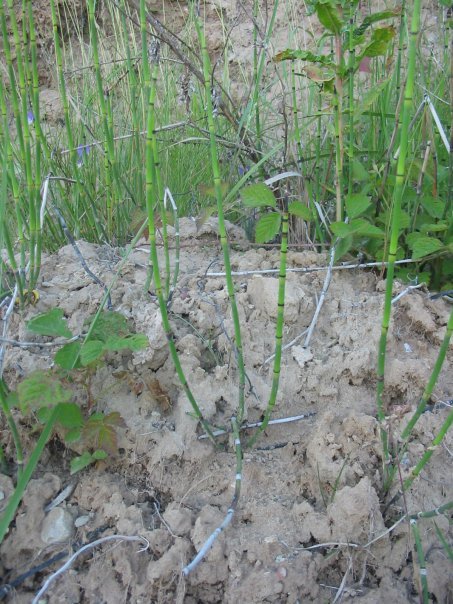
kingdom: Plantae
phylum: Tracheophyta
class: Polypodiopsida
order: Equisetales
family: Equisetaceae
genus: Equisetum
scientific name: Equisetum hyemale
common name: Rough horsetail
